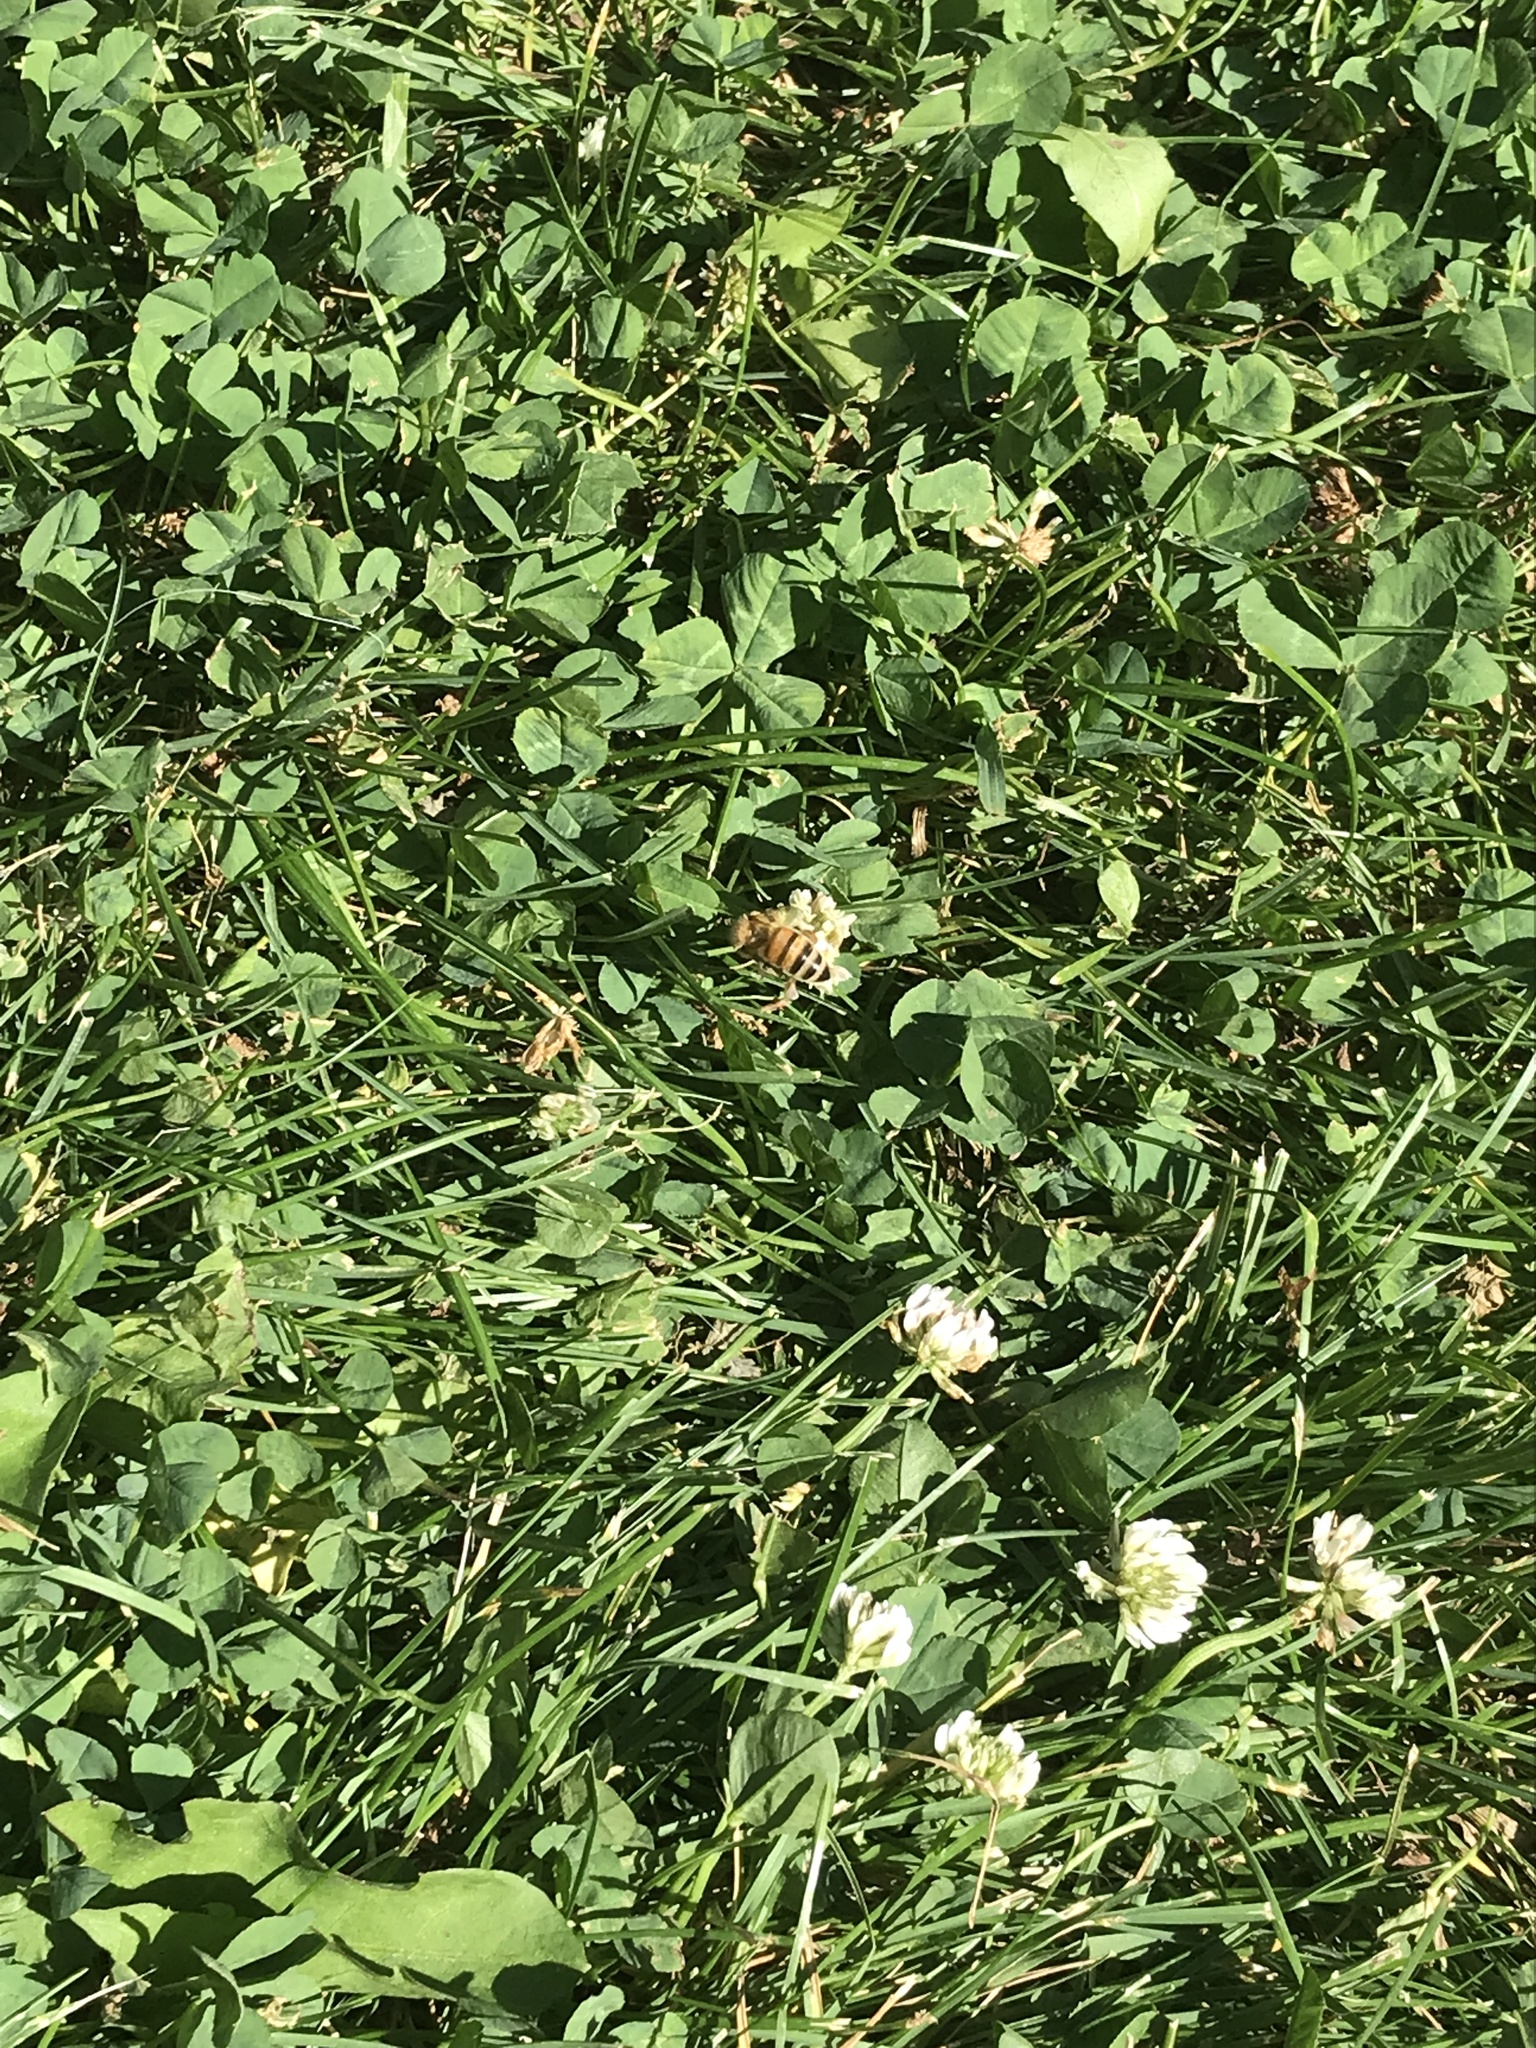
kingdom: Animalia
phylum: Arthropoda
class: Insecta
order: Hymenoptera
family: Apidae
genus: Apis
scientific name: Apis mellifera
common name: Honey bee
